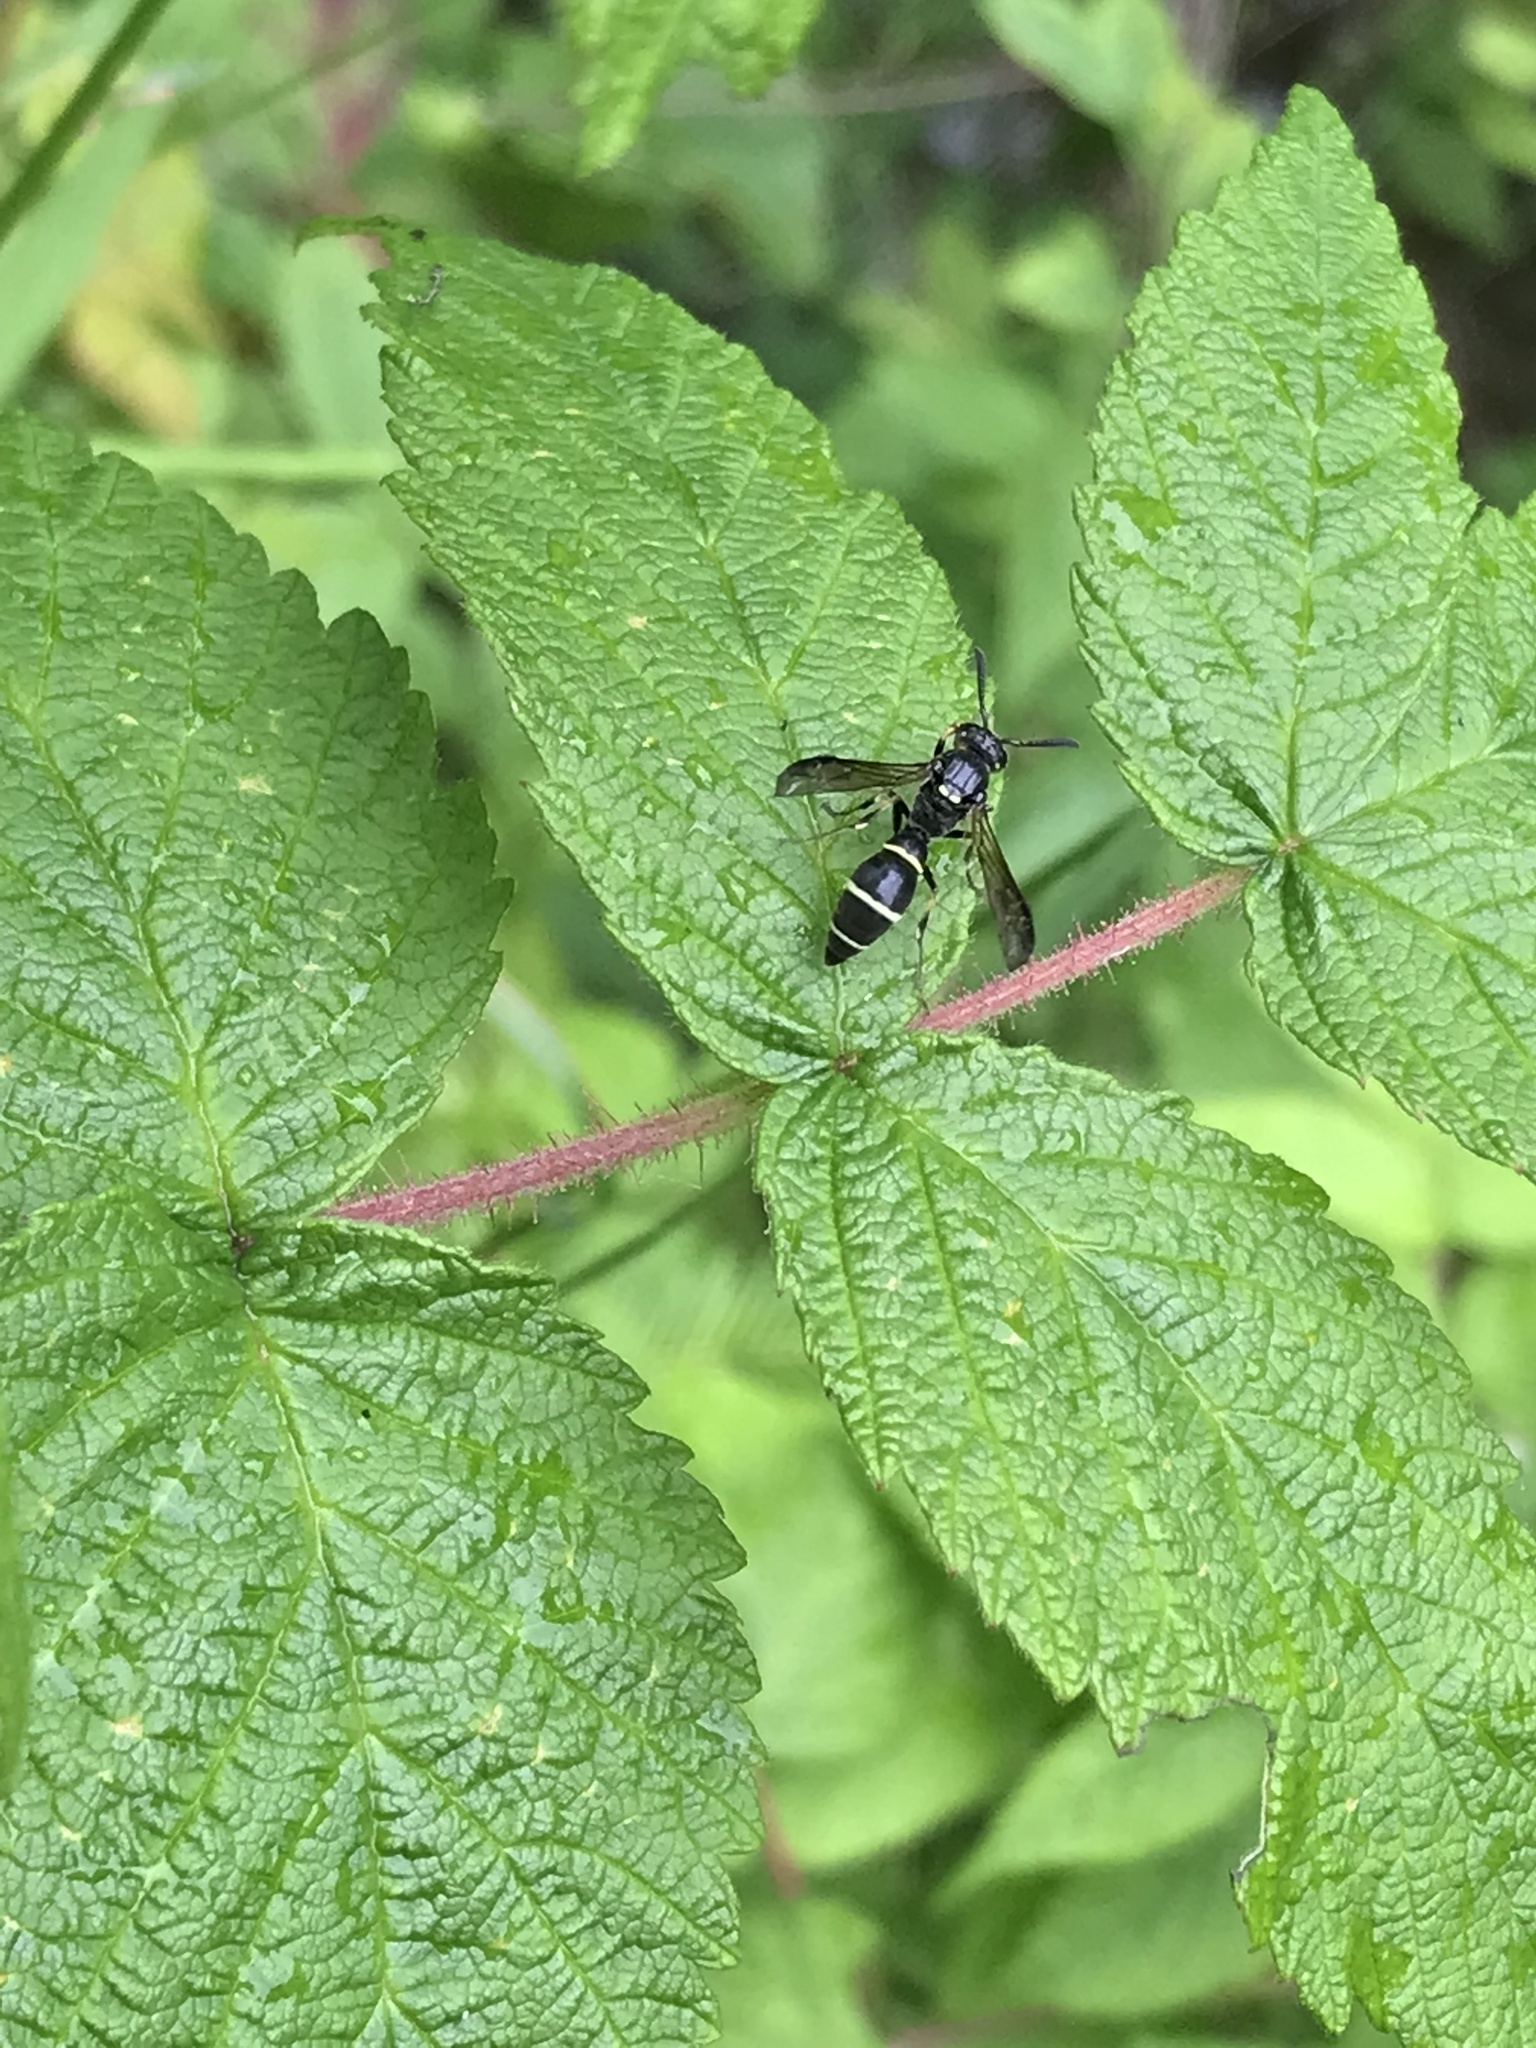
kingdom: Animalia
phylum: Arthropoda
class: Insecta
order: Hymenoptera
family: Eumenidae
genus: Symmorphus
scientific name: Symmorphus
